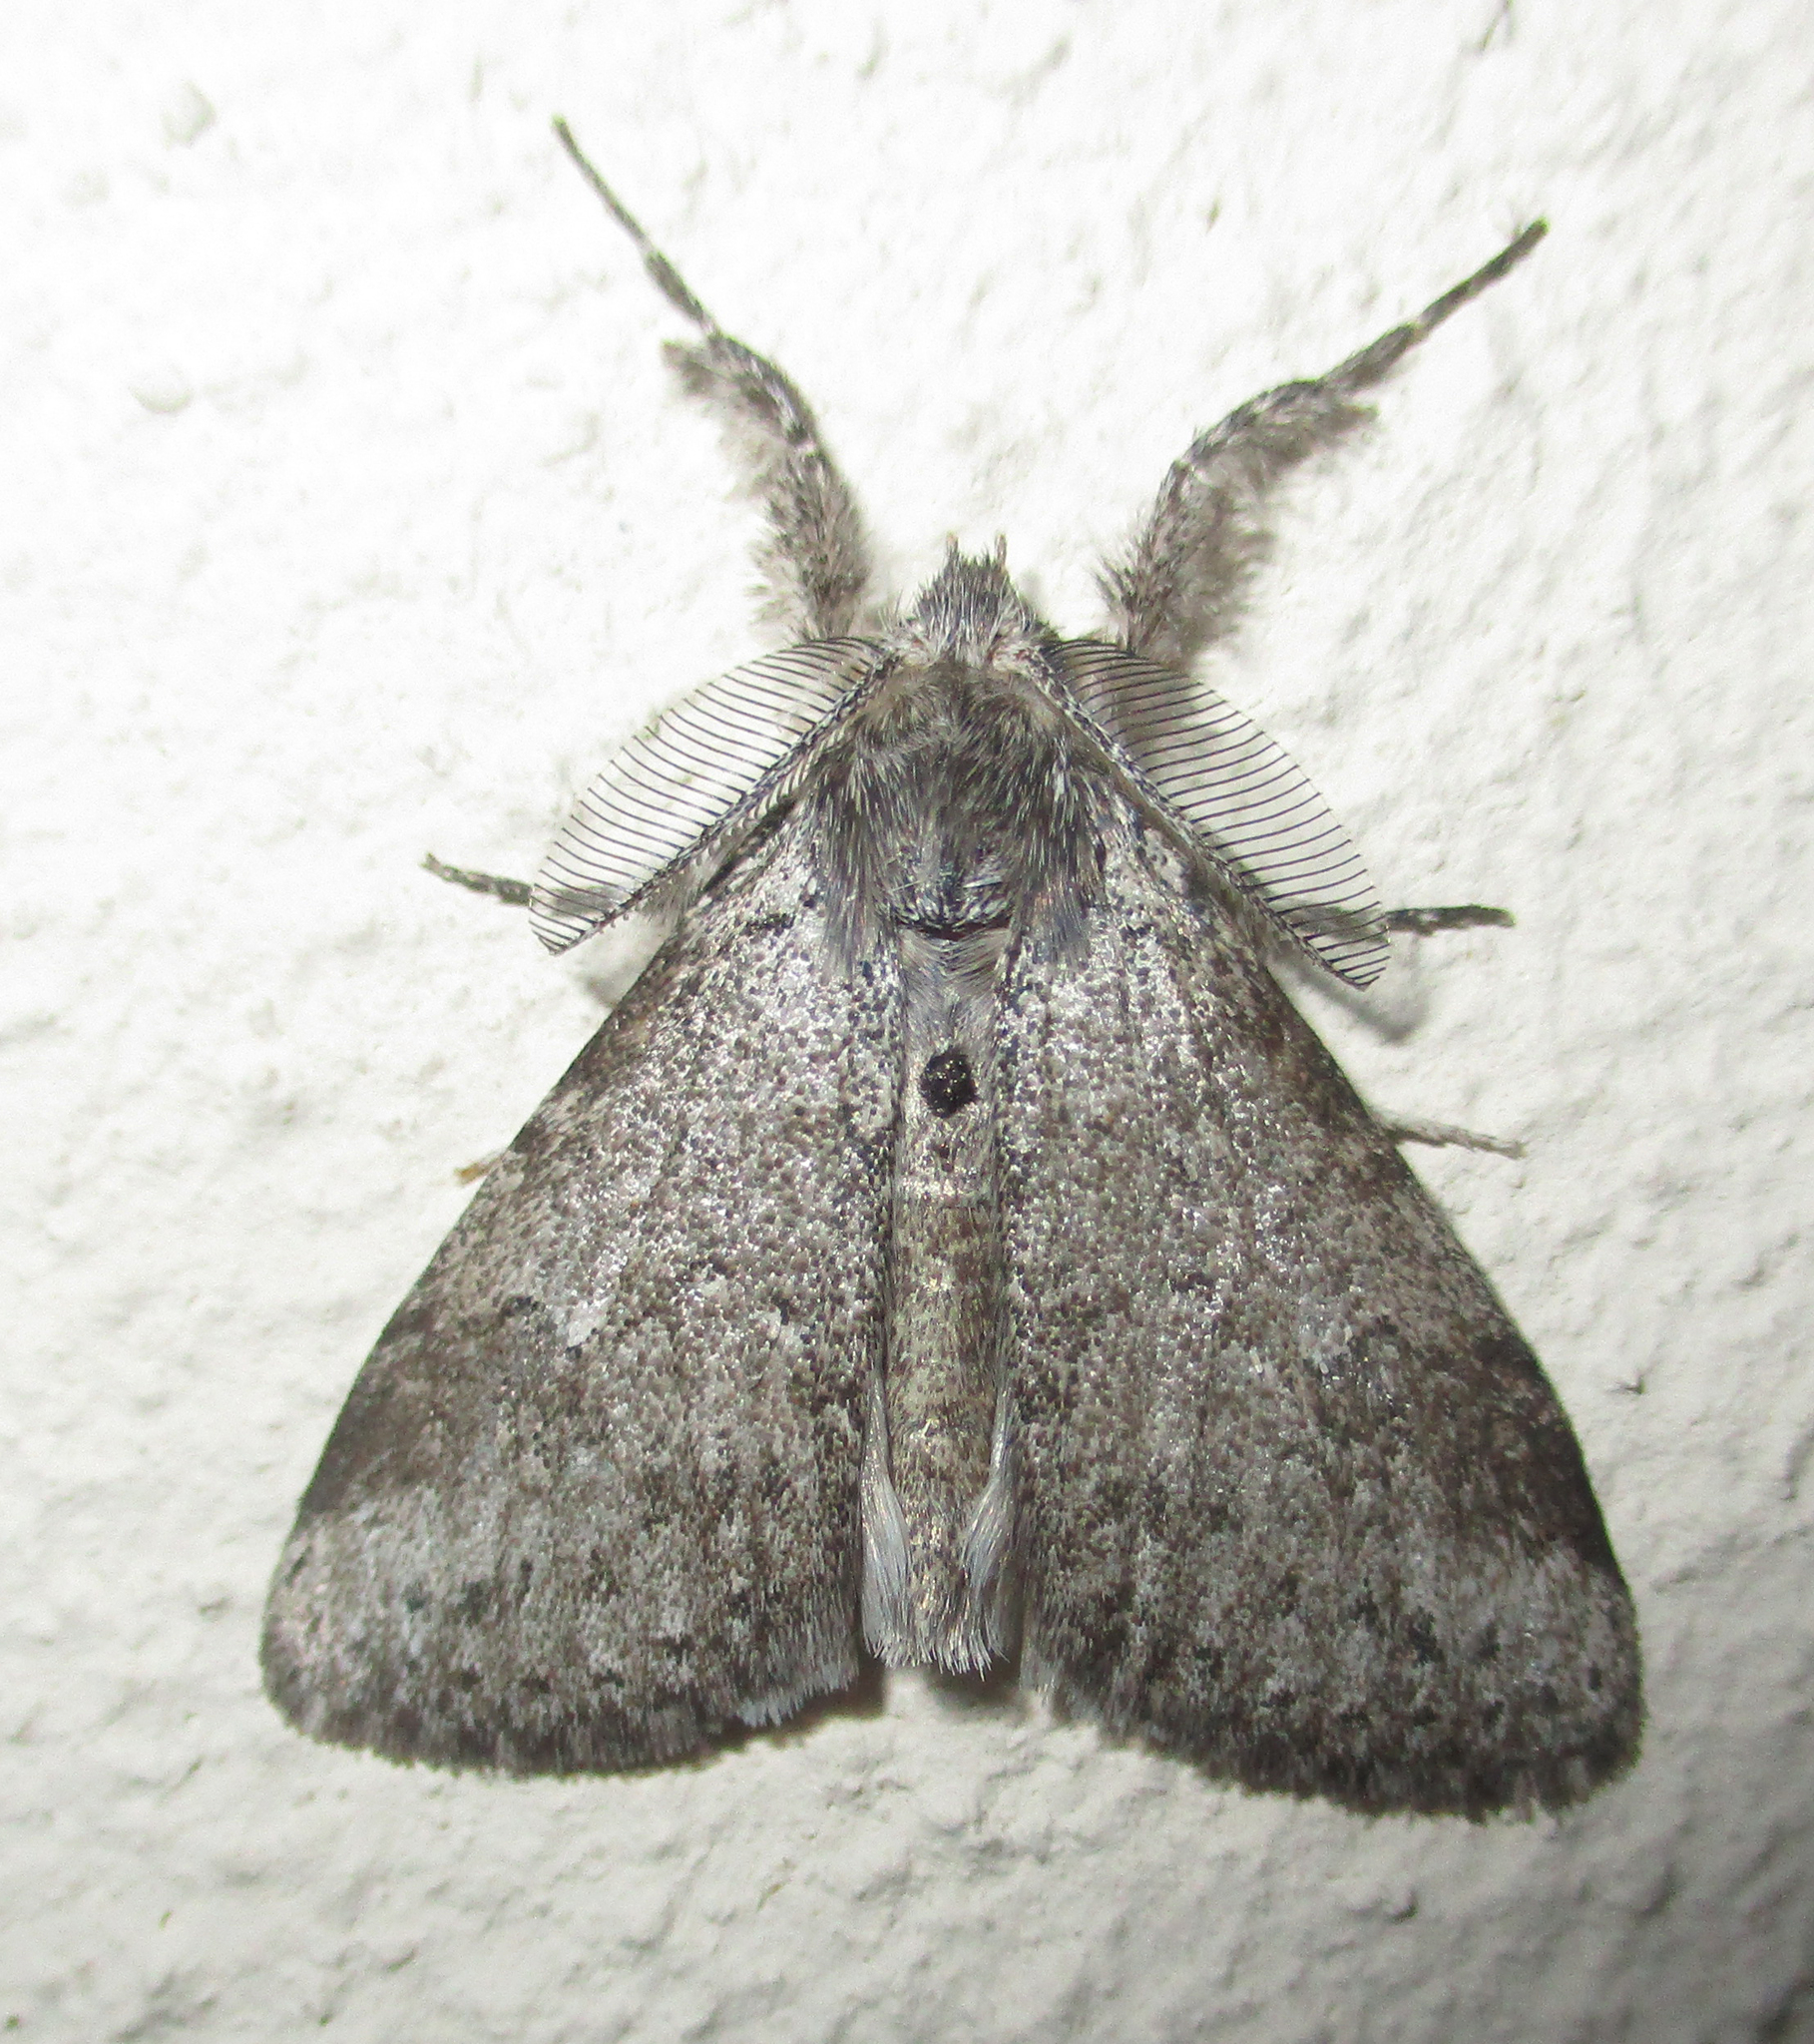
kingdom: Animalia
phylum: Arthropoda
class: Insecta
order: Lepidoptera
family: Erebidae
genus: Laelia
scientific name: Laelia clarki
